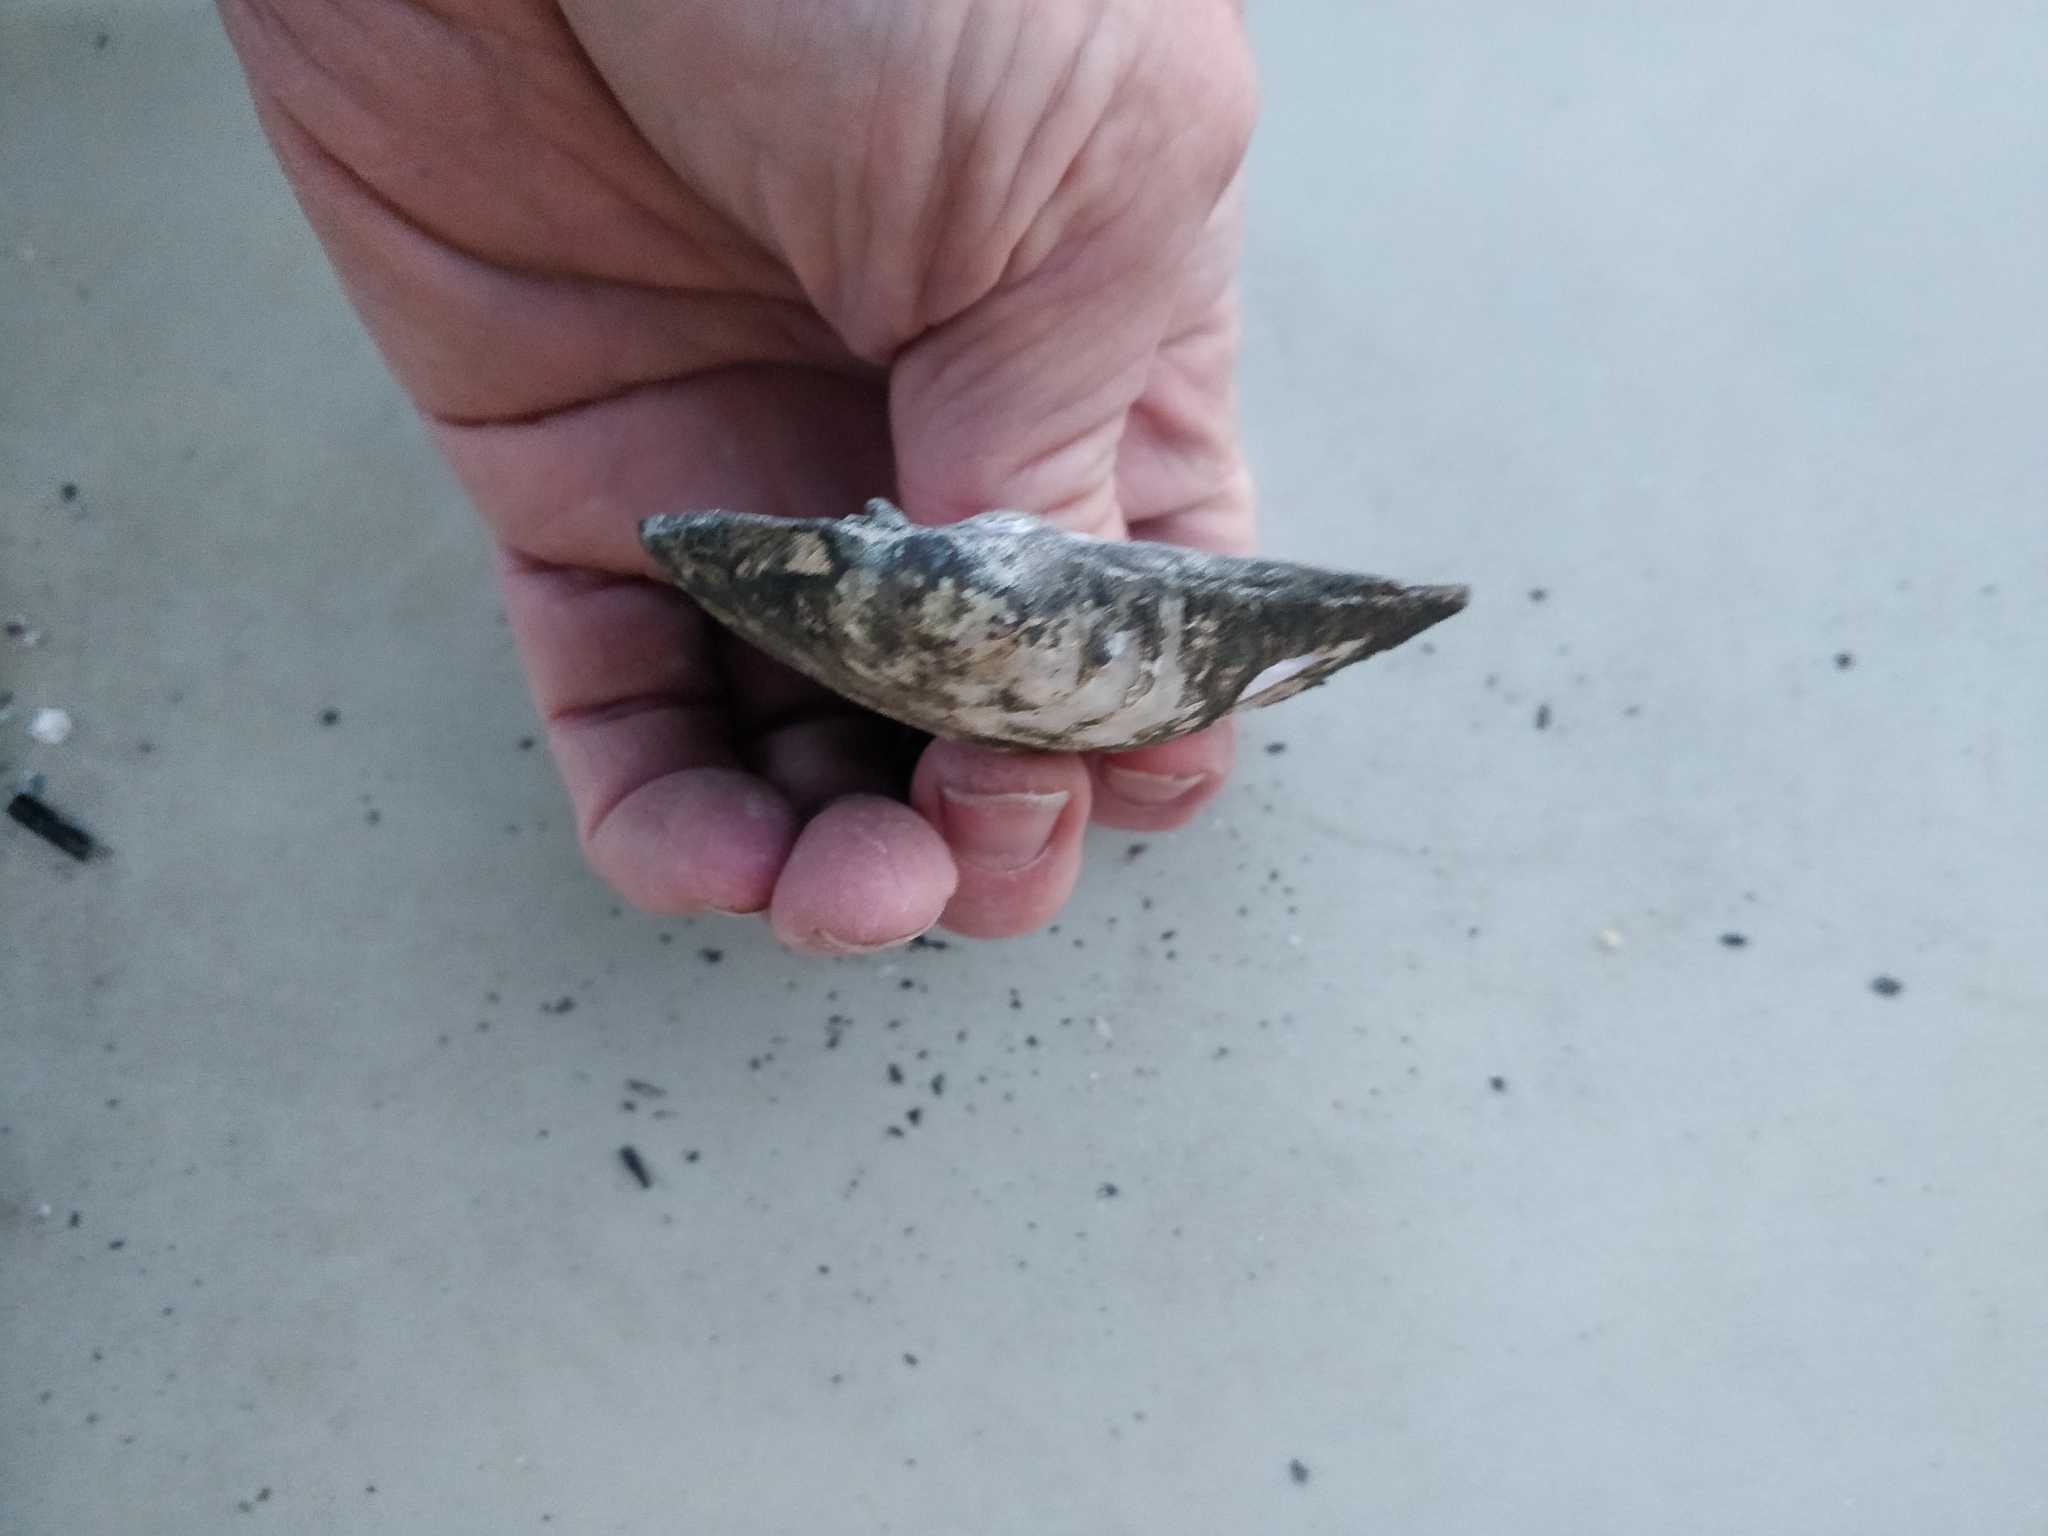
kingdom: Animalia
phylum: Mollusca
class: Bivalvia
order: Unionida
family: Unionidae
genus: Amblema
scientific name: Amblema plicata
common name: Threeridge
